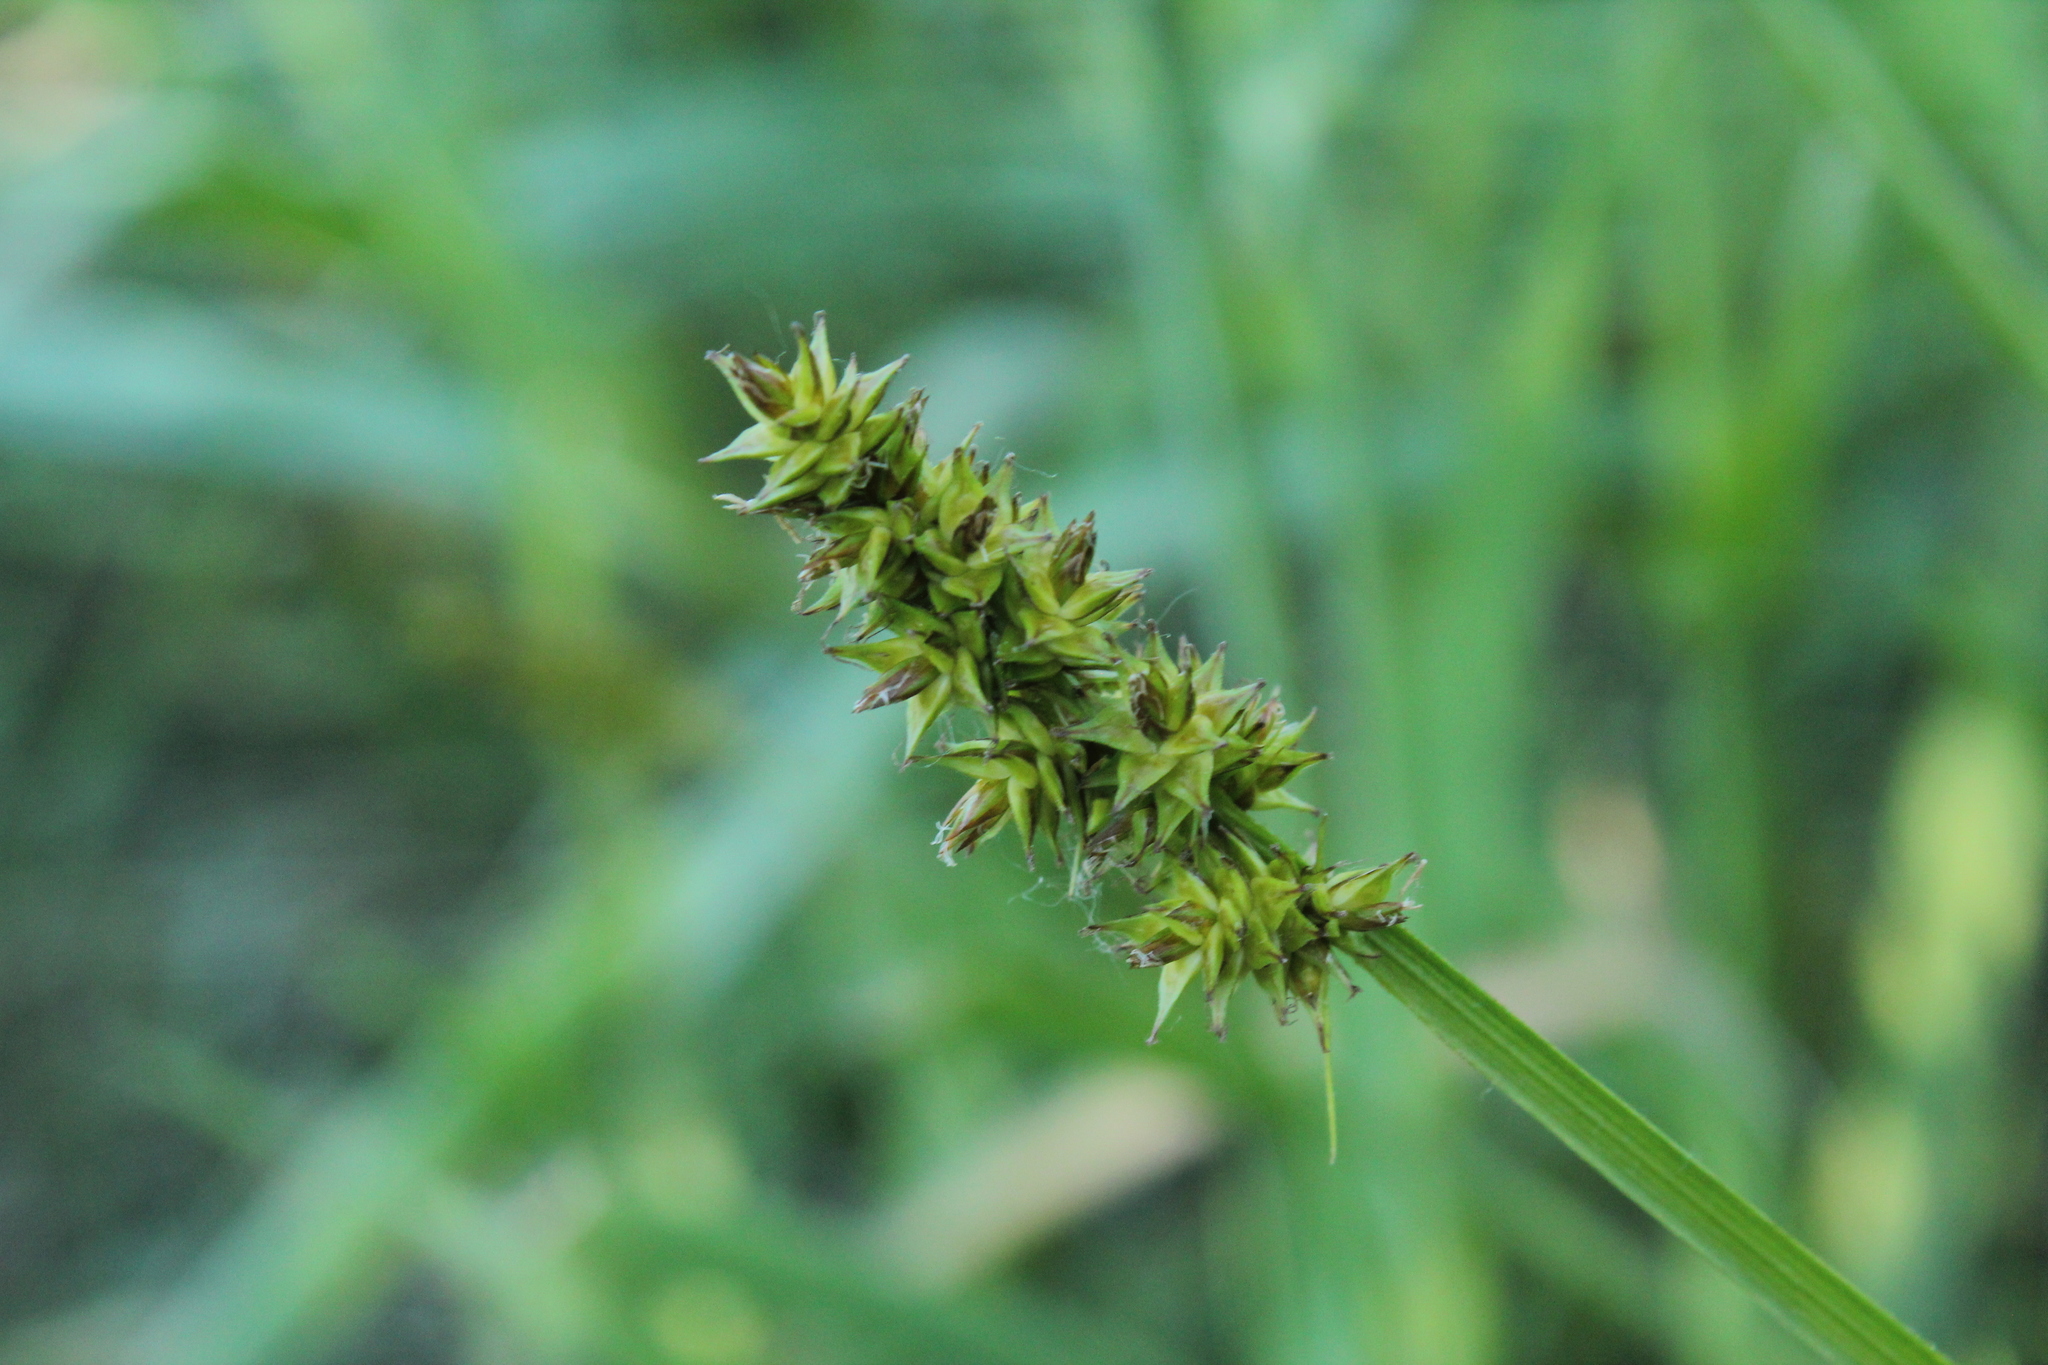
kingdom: Plantae
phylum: Tracheophyta
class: Liliopsida
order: Poales
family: Cyperaceae
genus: Carex
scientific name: Carex alopecoidea
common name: Brown-headed fox sedge
